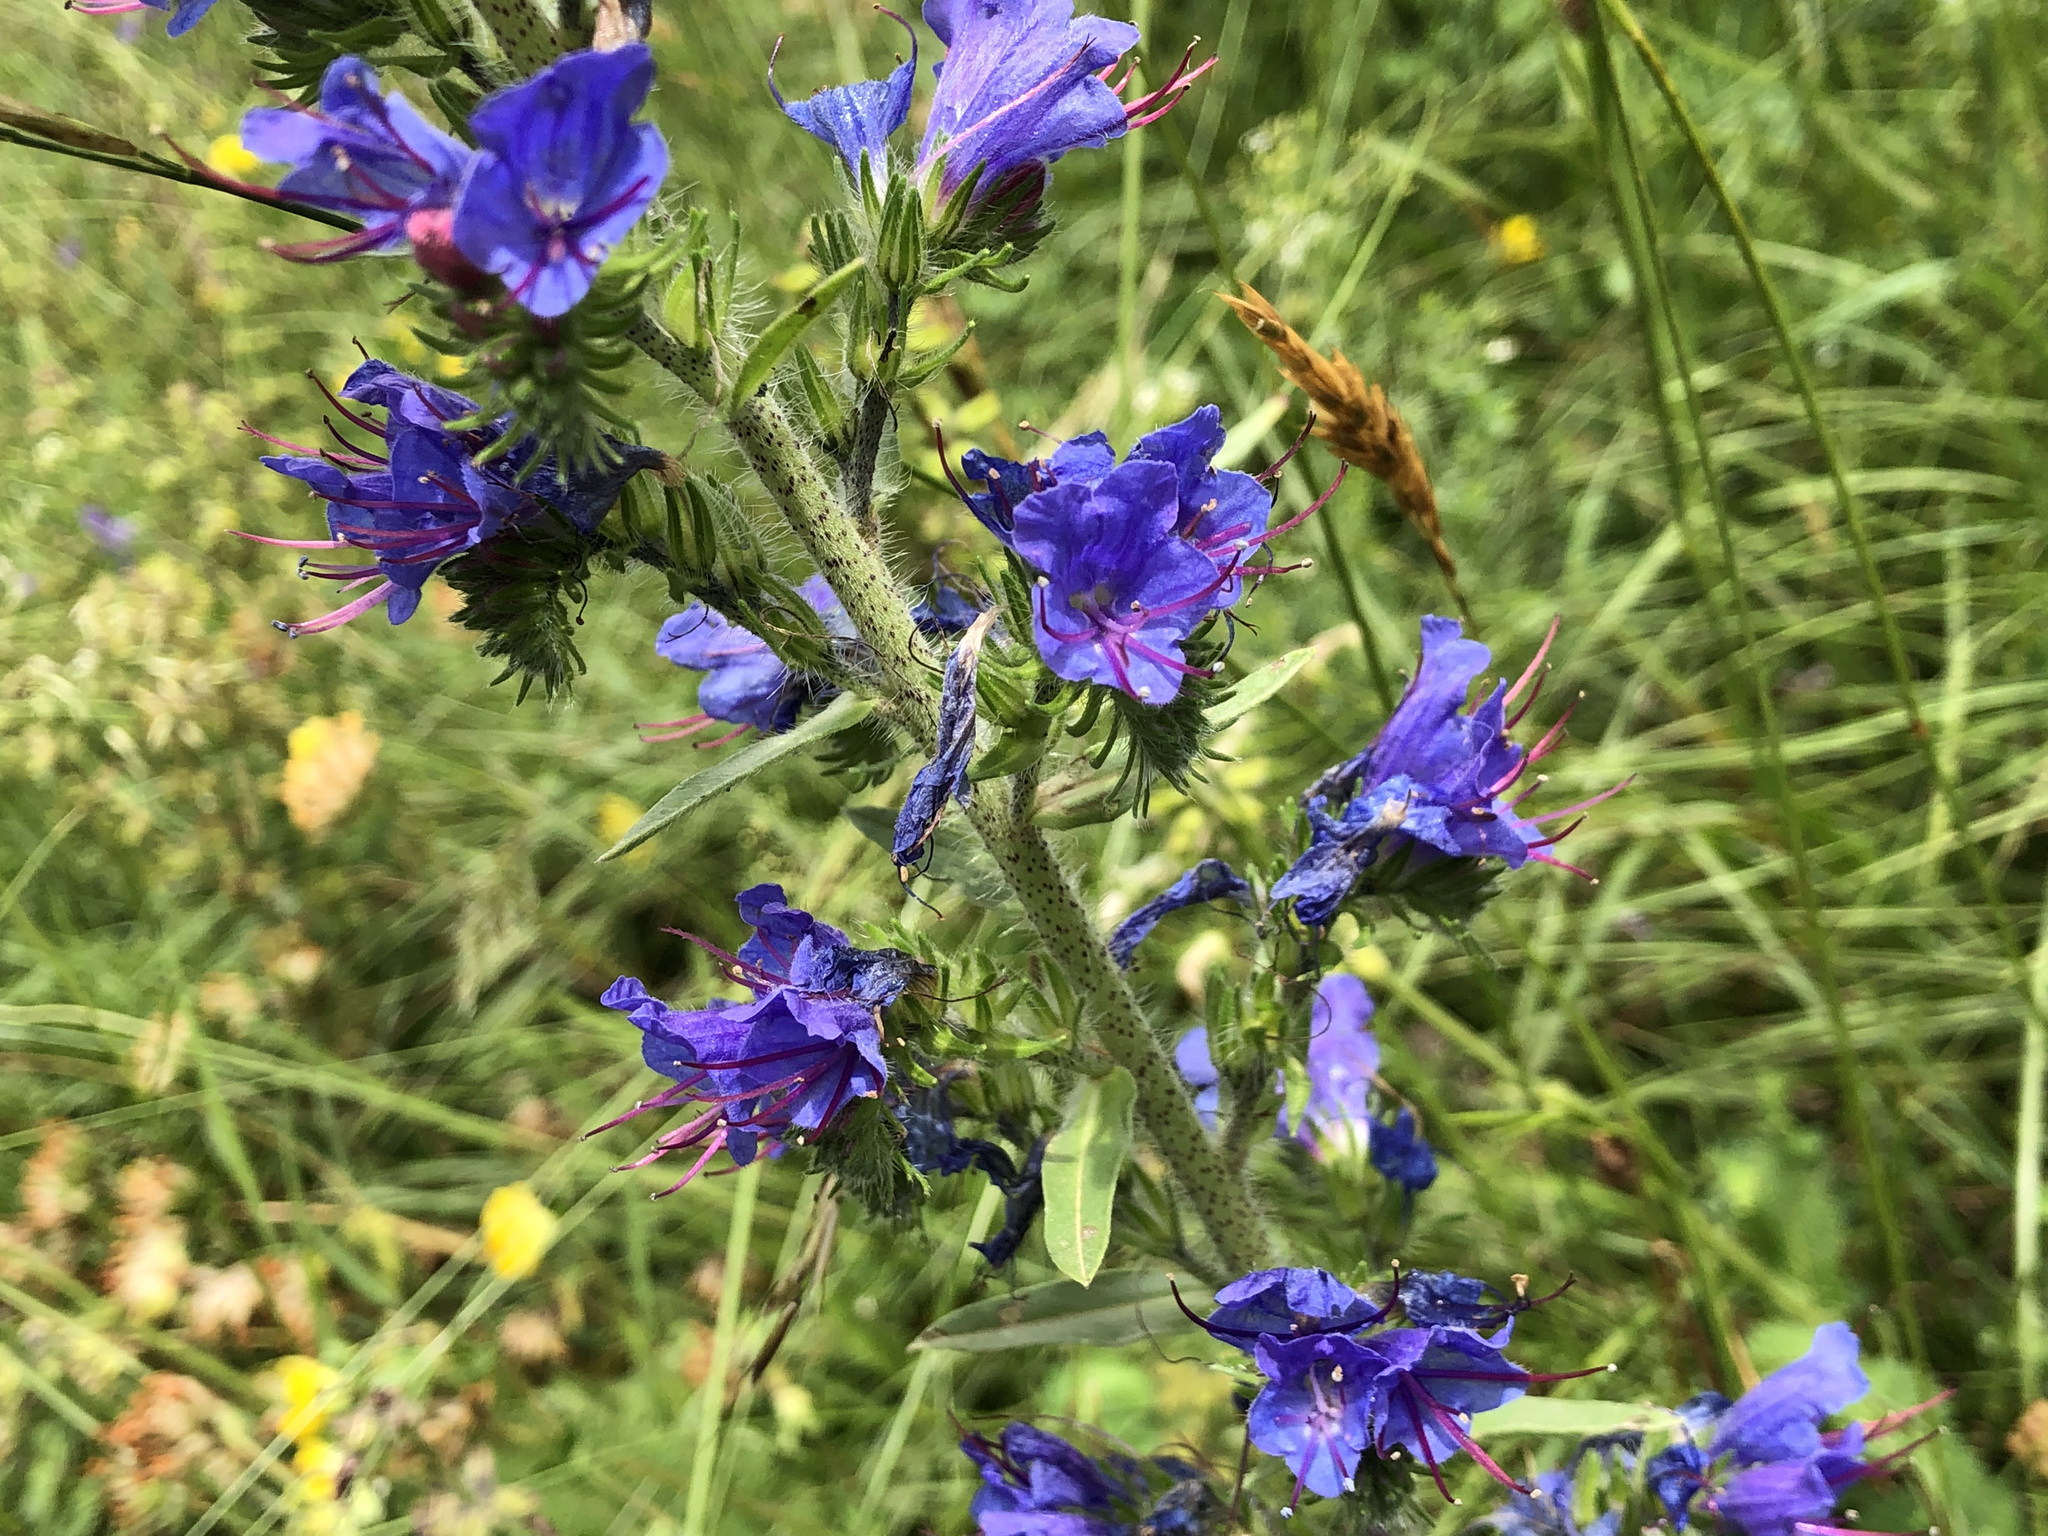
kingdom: Plantae
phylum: Tracheophyta
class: Magnoliopsida
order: Boraginales
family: Boraginaceae
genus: Echium
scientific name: Echium vulgare
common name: Common viper's bugloss
